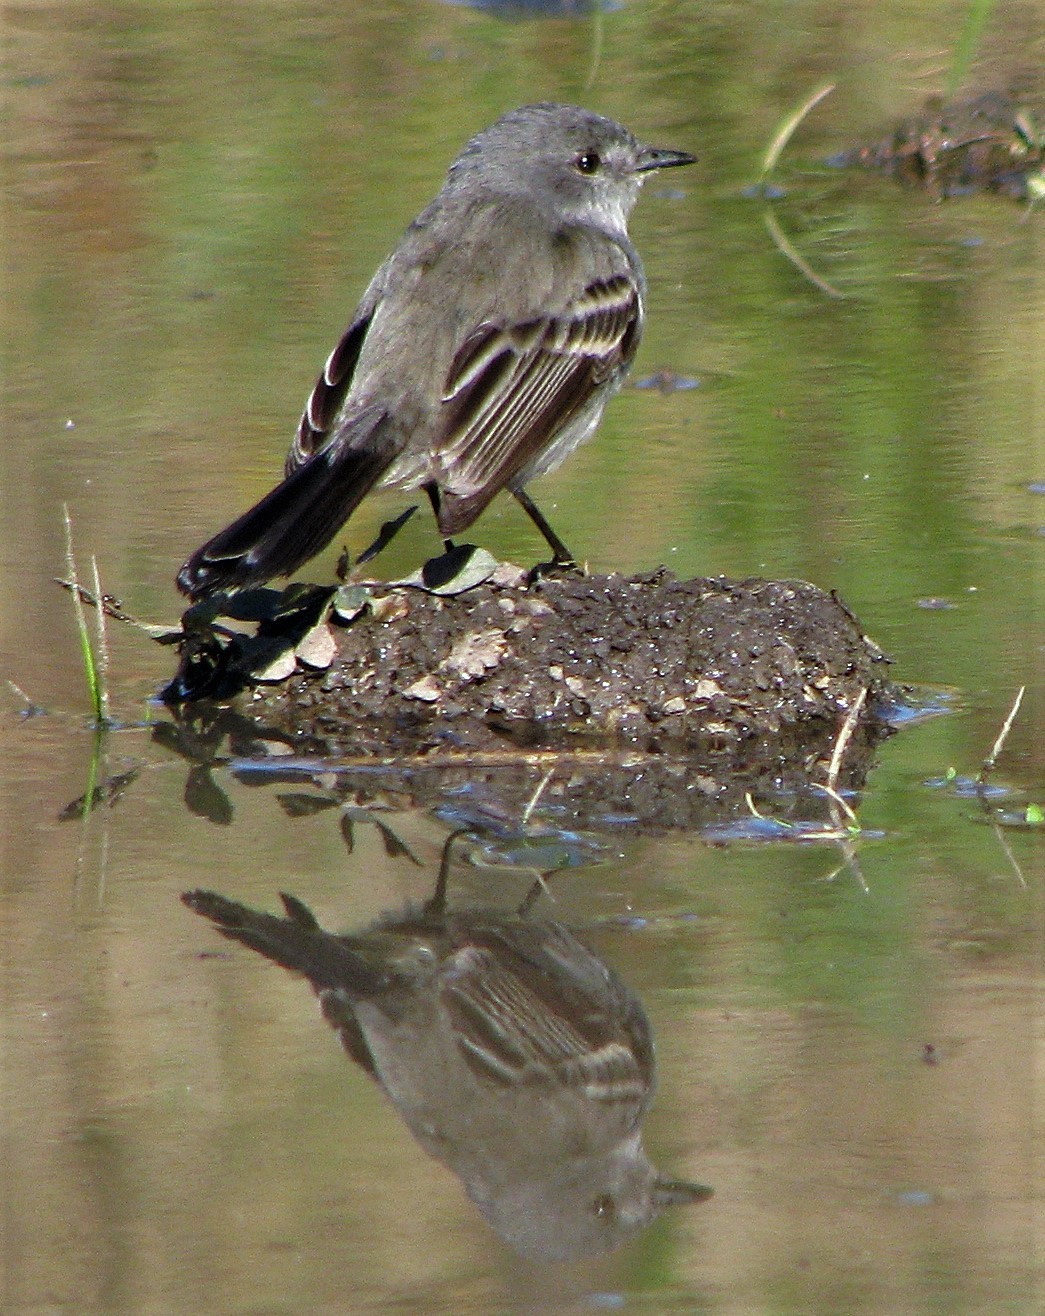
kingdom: Animalia
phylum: Chordata
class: Aves
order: Passeriformes
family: Tyrannidae
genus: Serpophaga
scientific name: Serpophaga nigricans
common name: Sooty tyrannulet
